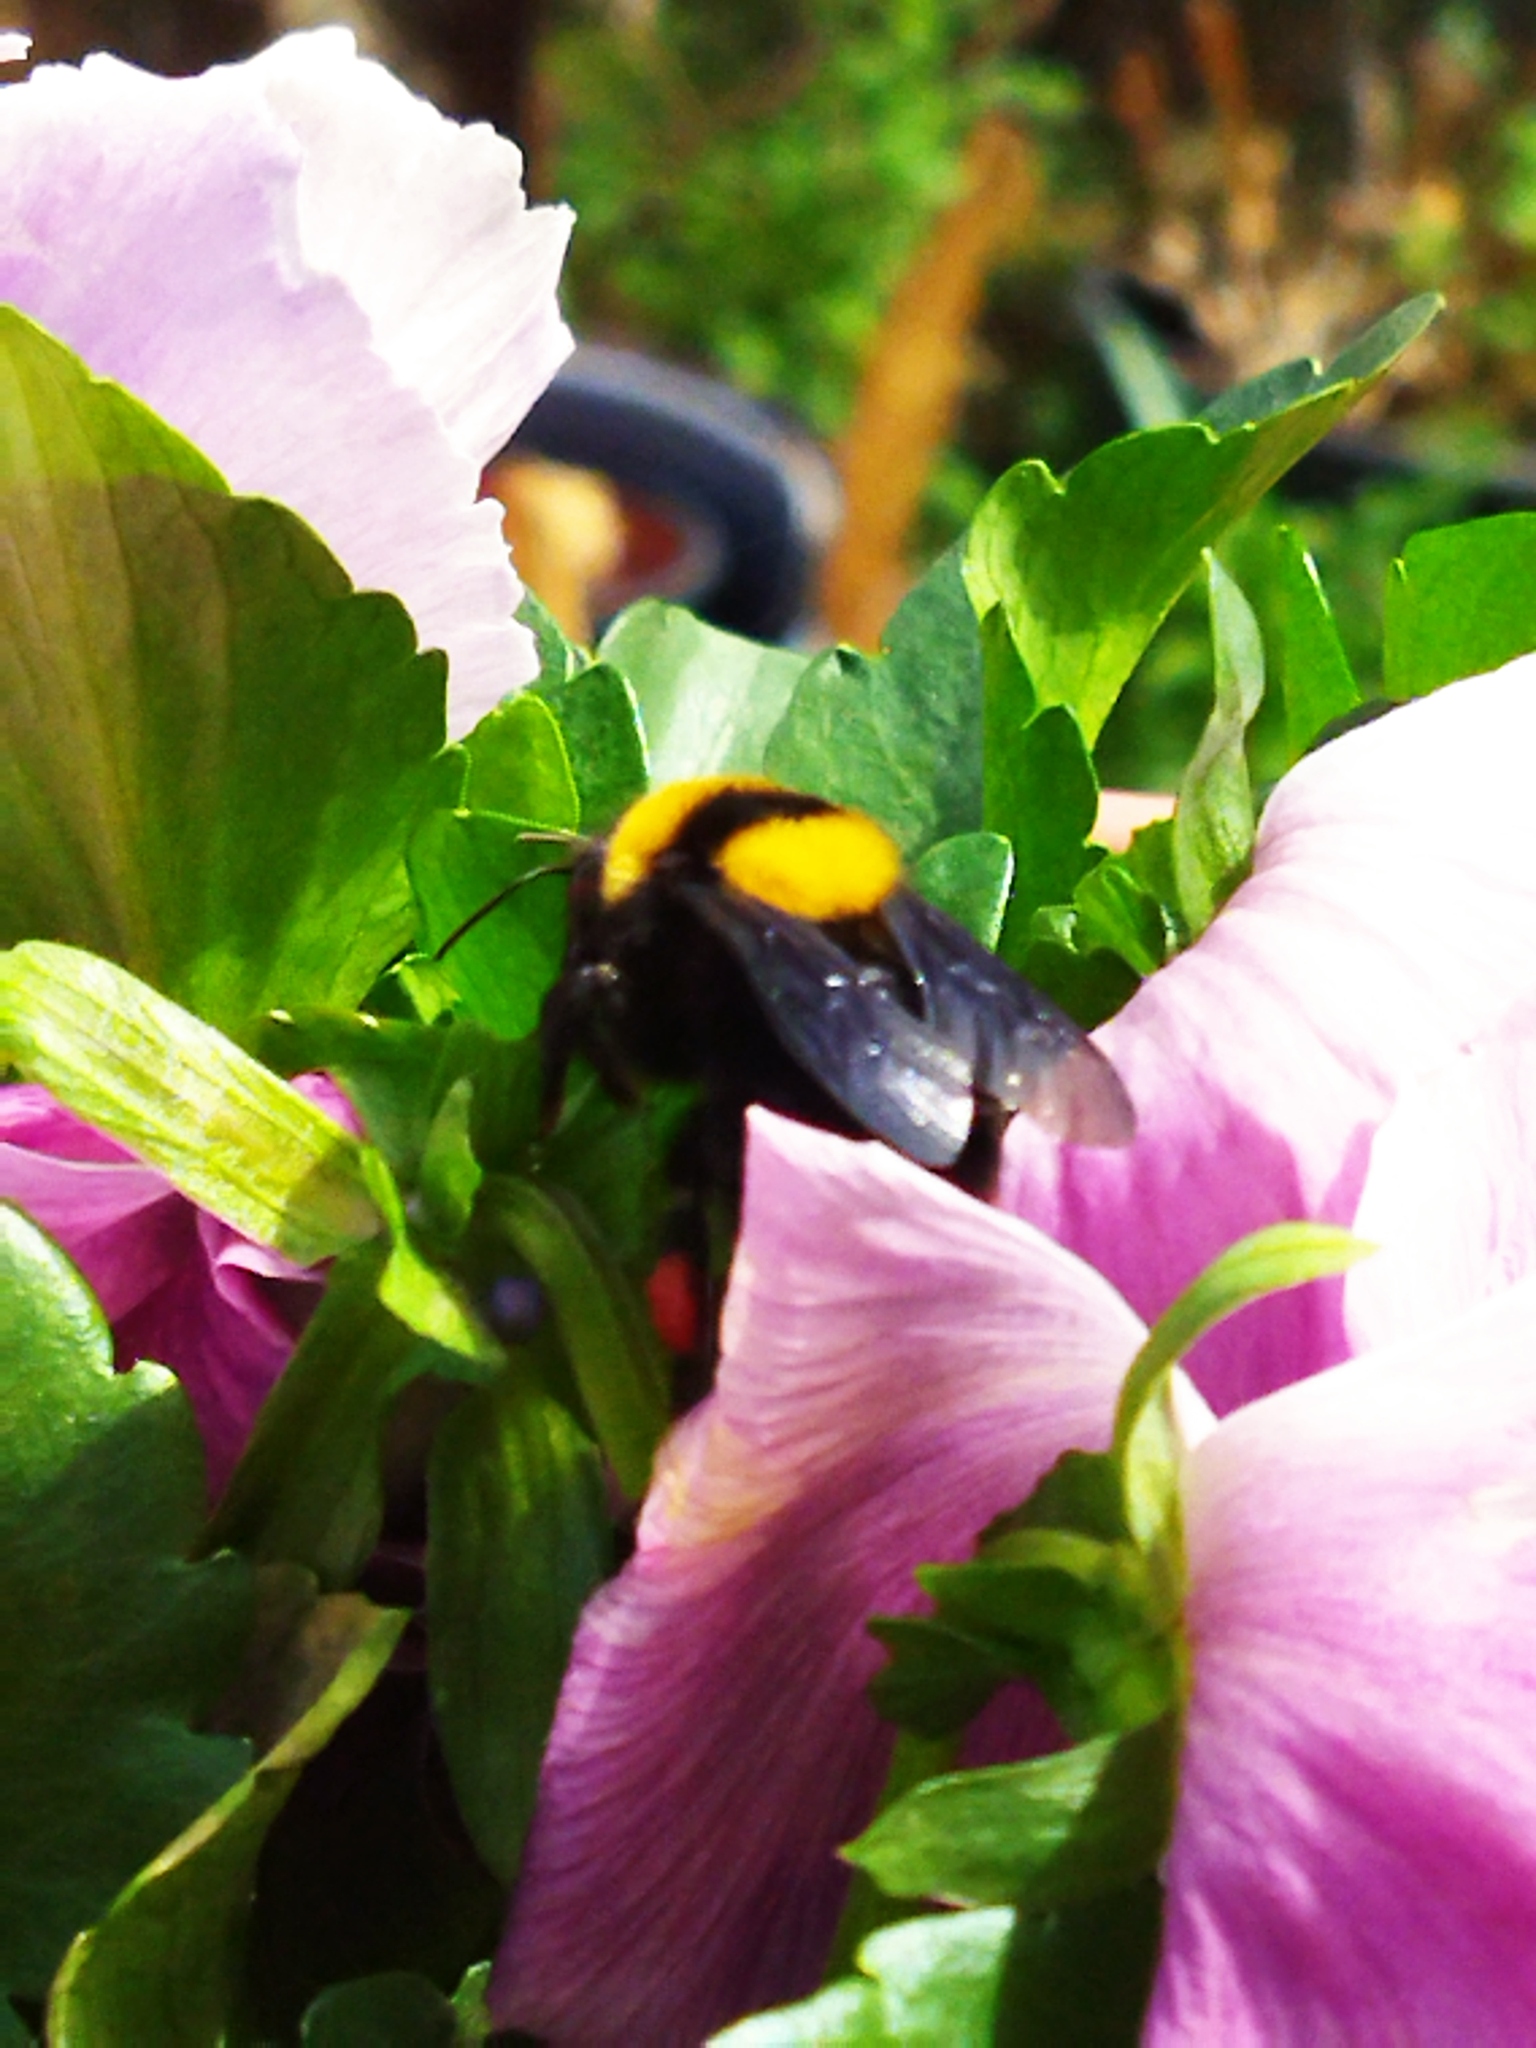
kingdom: Animalia
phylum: Arthropoda
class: Insecta
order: Hymenoptera
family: Apidae
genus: Bombus
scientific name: Bombus argillaceus
